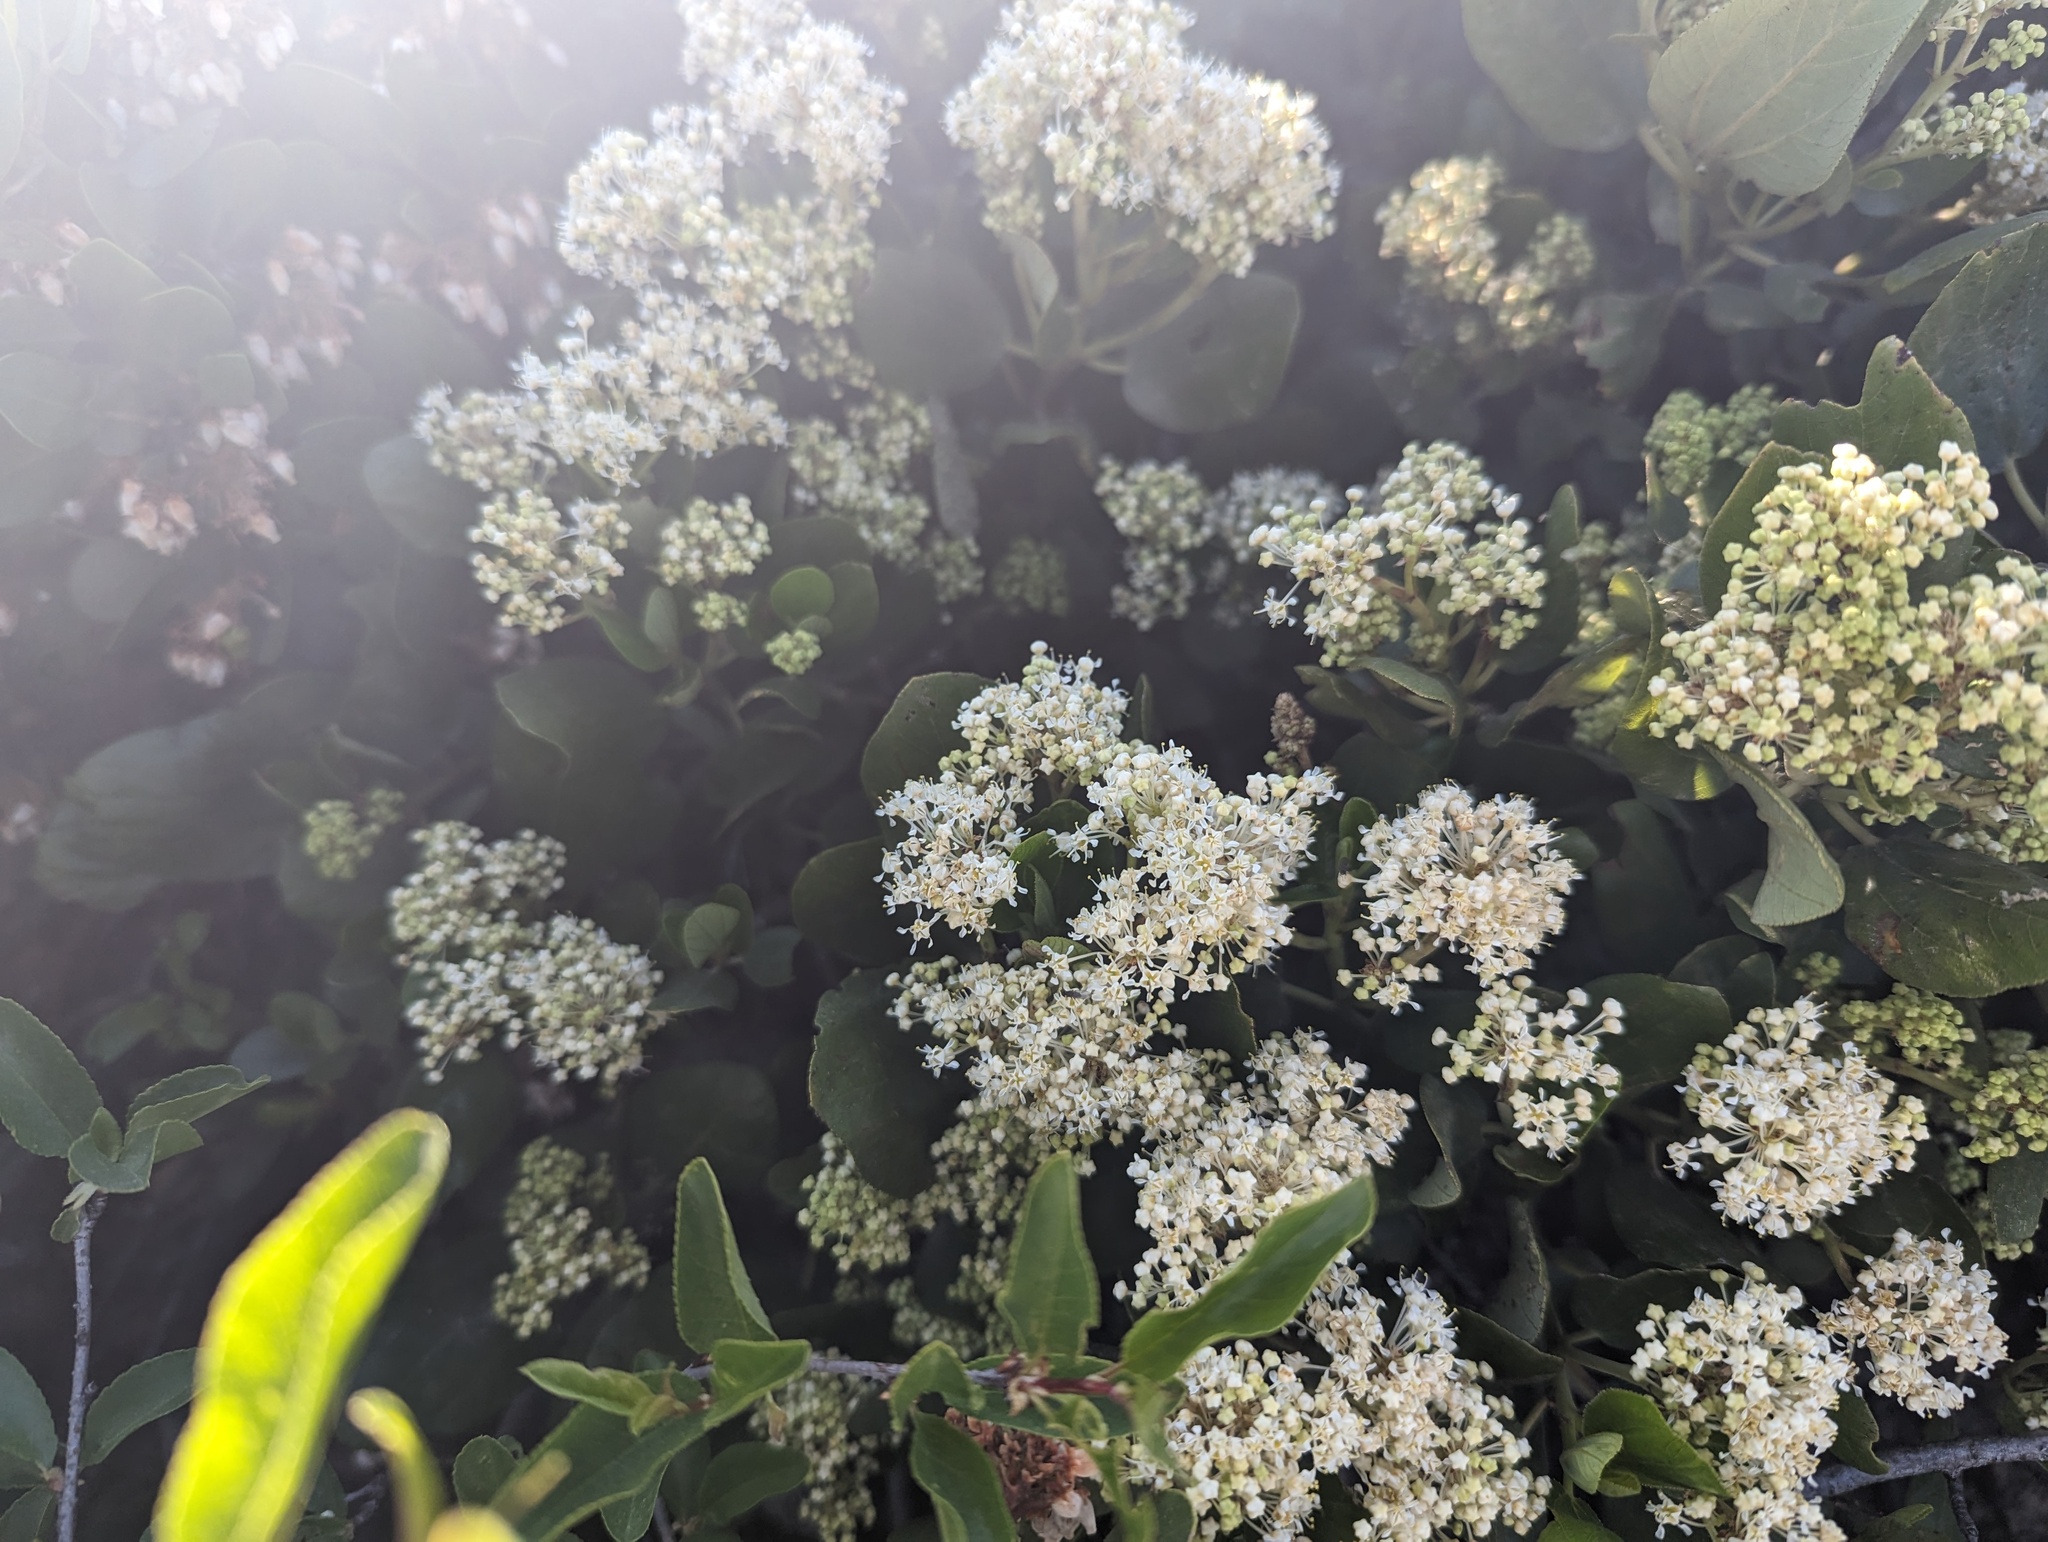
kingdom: Plantae
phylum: Tracheophyta
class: Magnoliopsida
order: Rosales
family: Rhamnaceae
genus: Ceanothus
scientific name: Ceanothus velutinus
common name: Snowbrush
